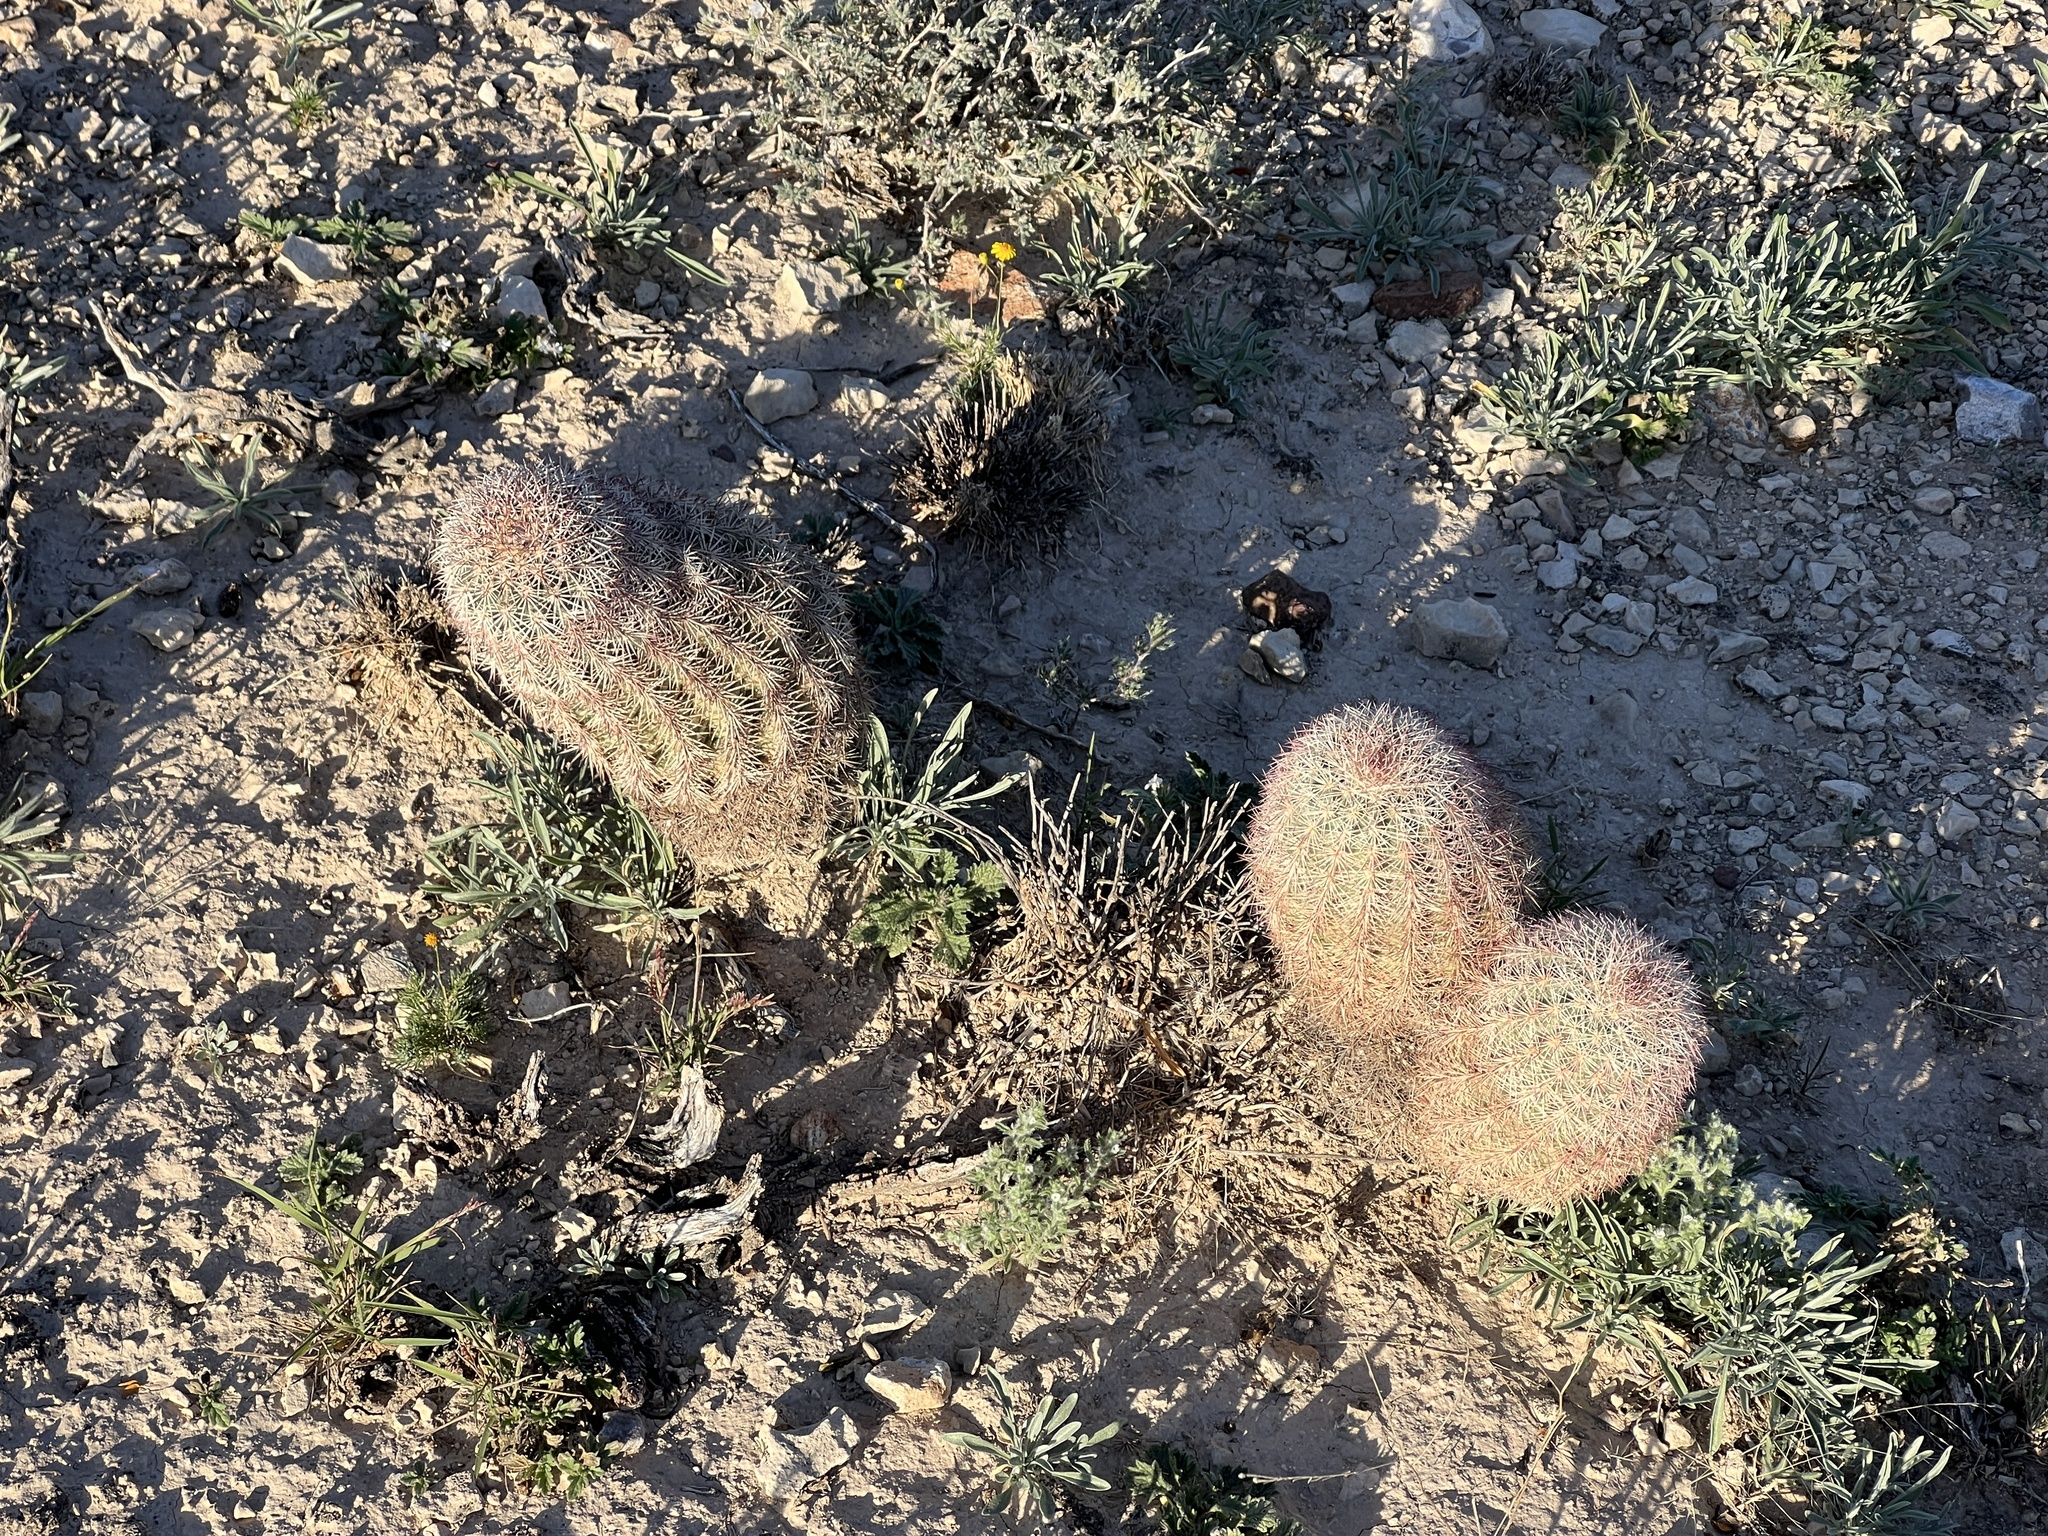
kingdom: Plantae
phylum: Tracheophyta
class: Magnoliopsida
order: Caryophyllales
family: Cactaceae
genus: Echinocereus
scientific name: Echinocereus dasyacanthus
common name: Spiny hedgehog cactus
